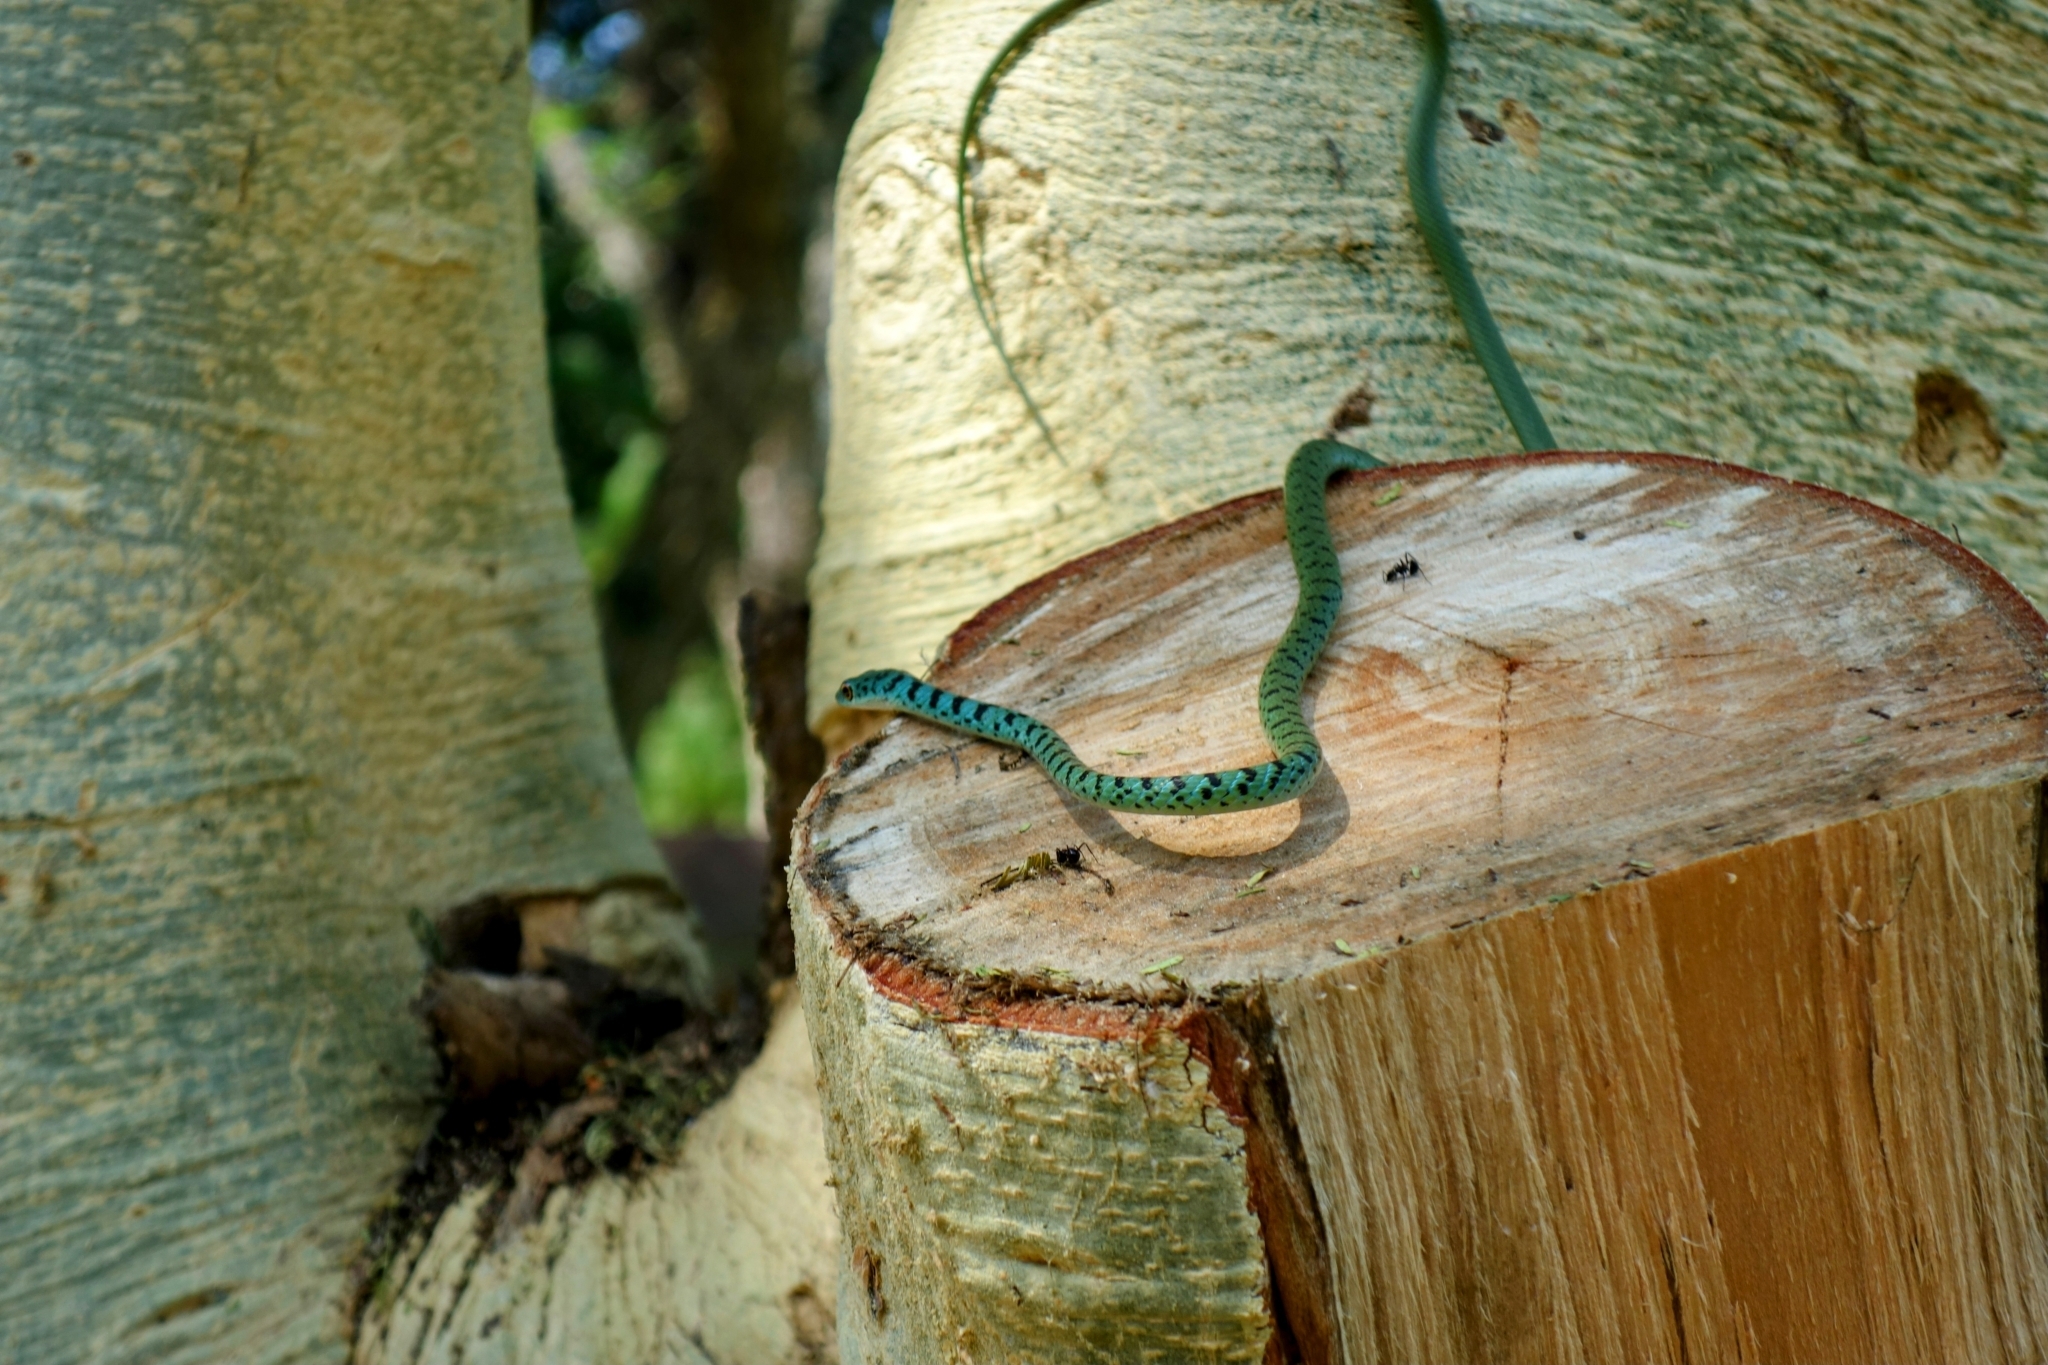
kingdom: Animalia
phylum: Chordata
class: Squamata
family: Colubridae
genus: Philothamnus
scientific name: Philothamnus semivariegatus
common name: Spotted bush snake
